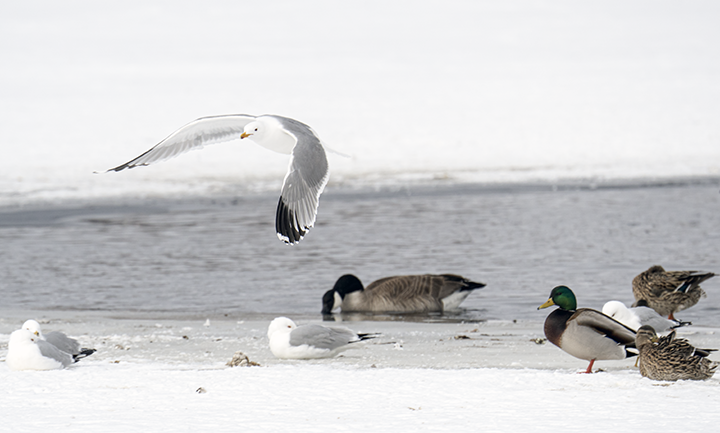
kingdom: Animalia
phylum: Chordata
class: Aves
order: Charadriiformes
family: Laridae
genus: Larus
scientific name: Larus delawarensis
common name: Ring-billed gull
